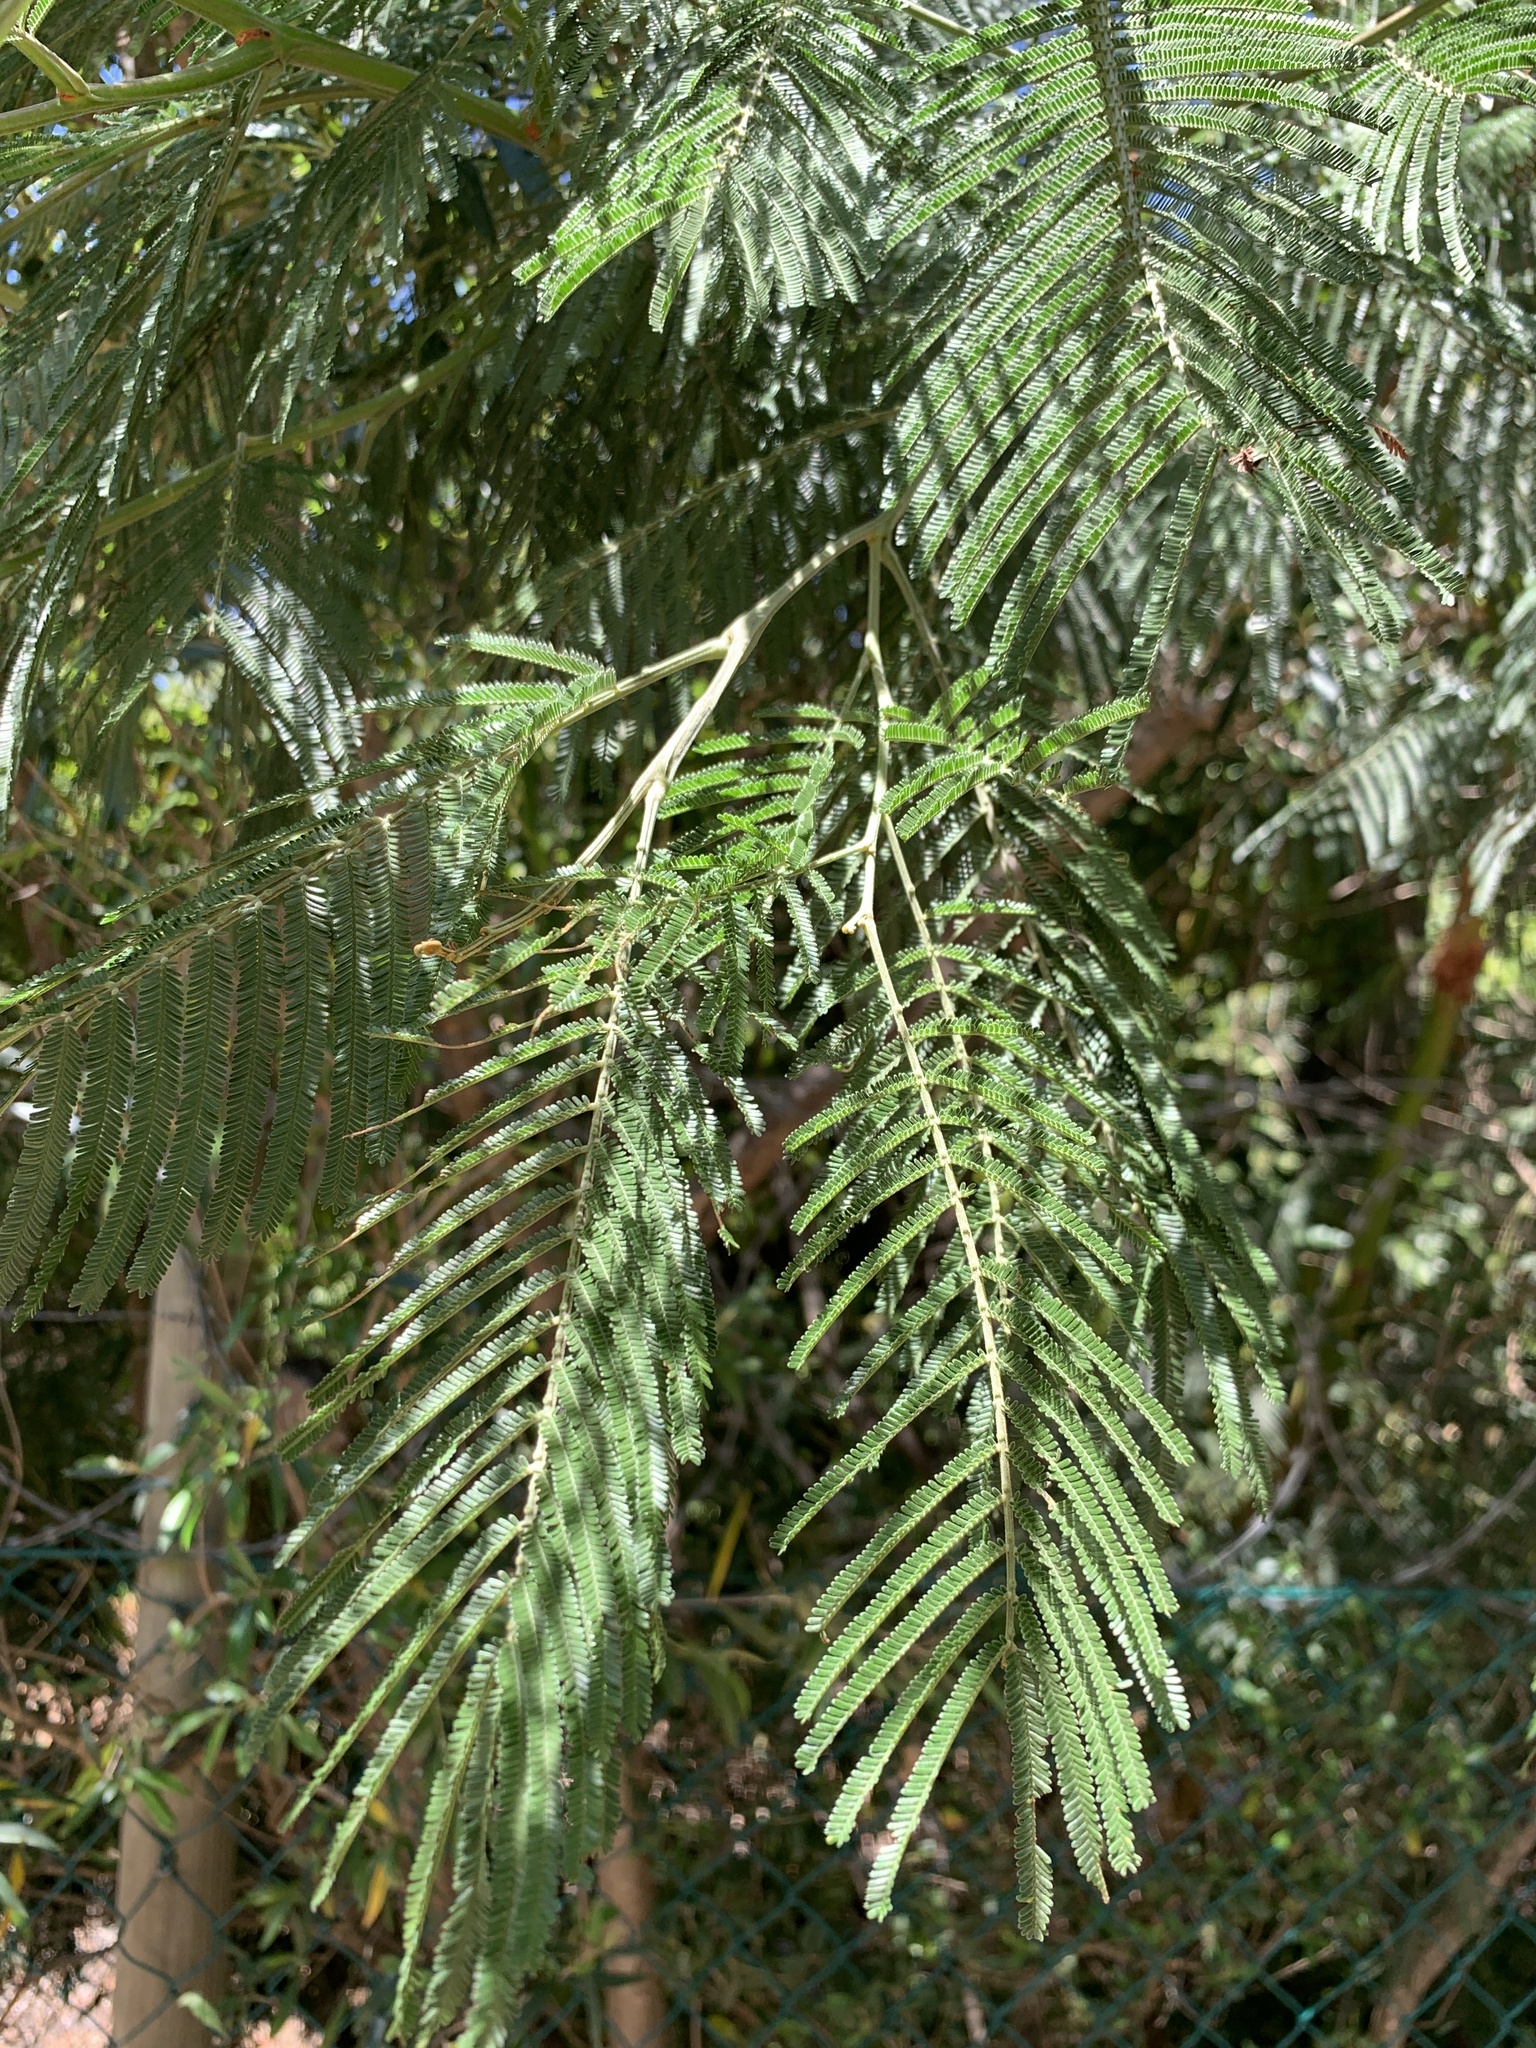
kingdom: Plantae
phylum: Tracheophyta
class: Magnoliopsida
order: Fabales
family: Fabaceae
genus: Acacia
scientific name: Acacia mearnsii
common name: Black wattle
